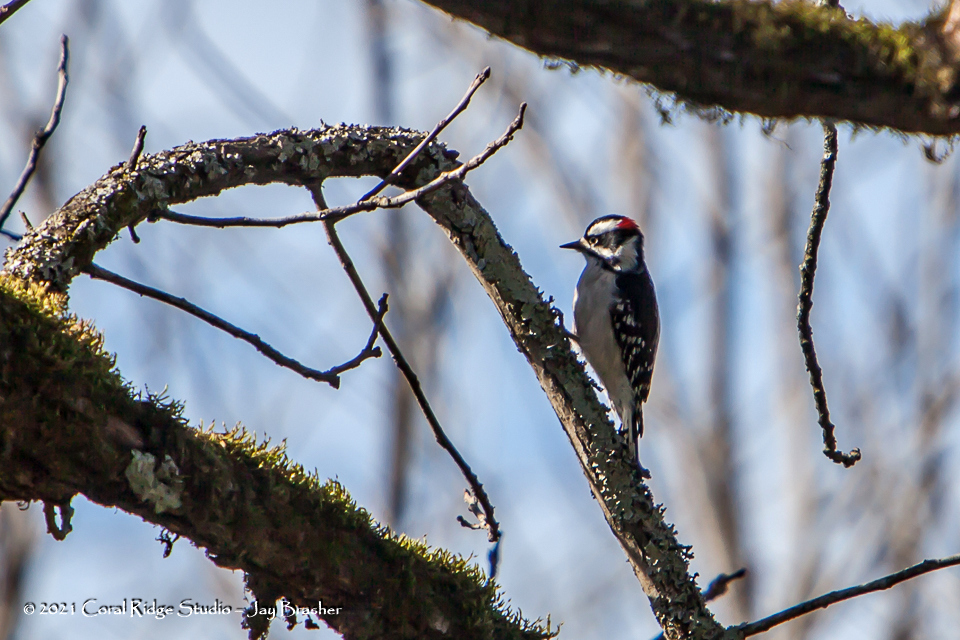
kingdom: Animalia
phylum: Chordata
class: Aves
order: Piciformes
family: Picidae
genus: Dryobates
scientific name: Dryobates pubescens
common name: Downy woodpecker
